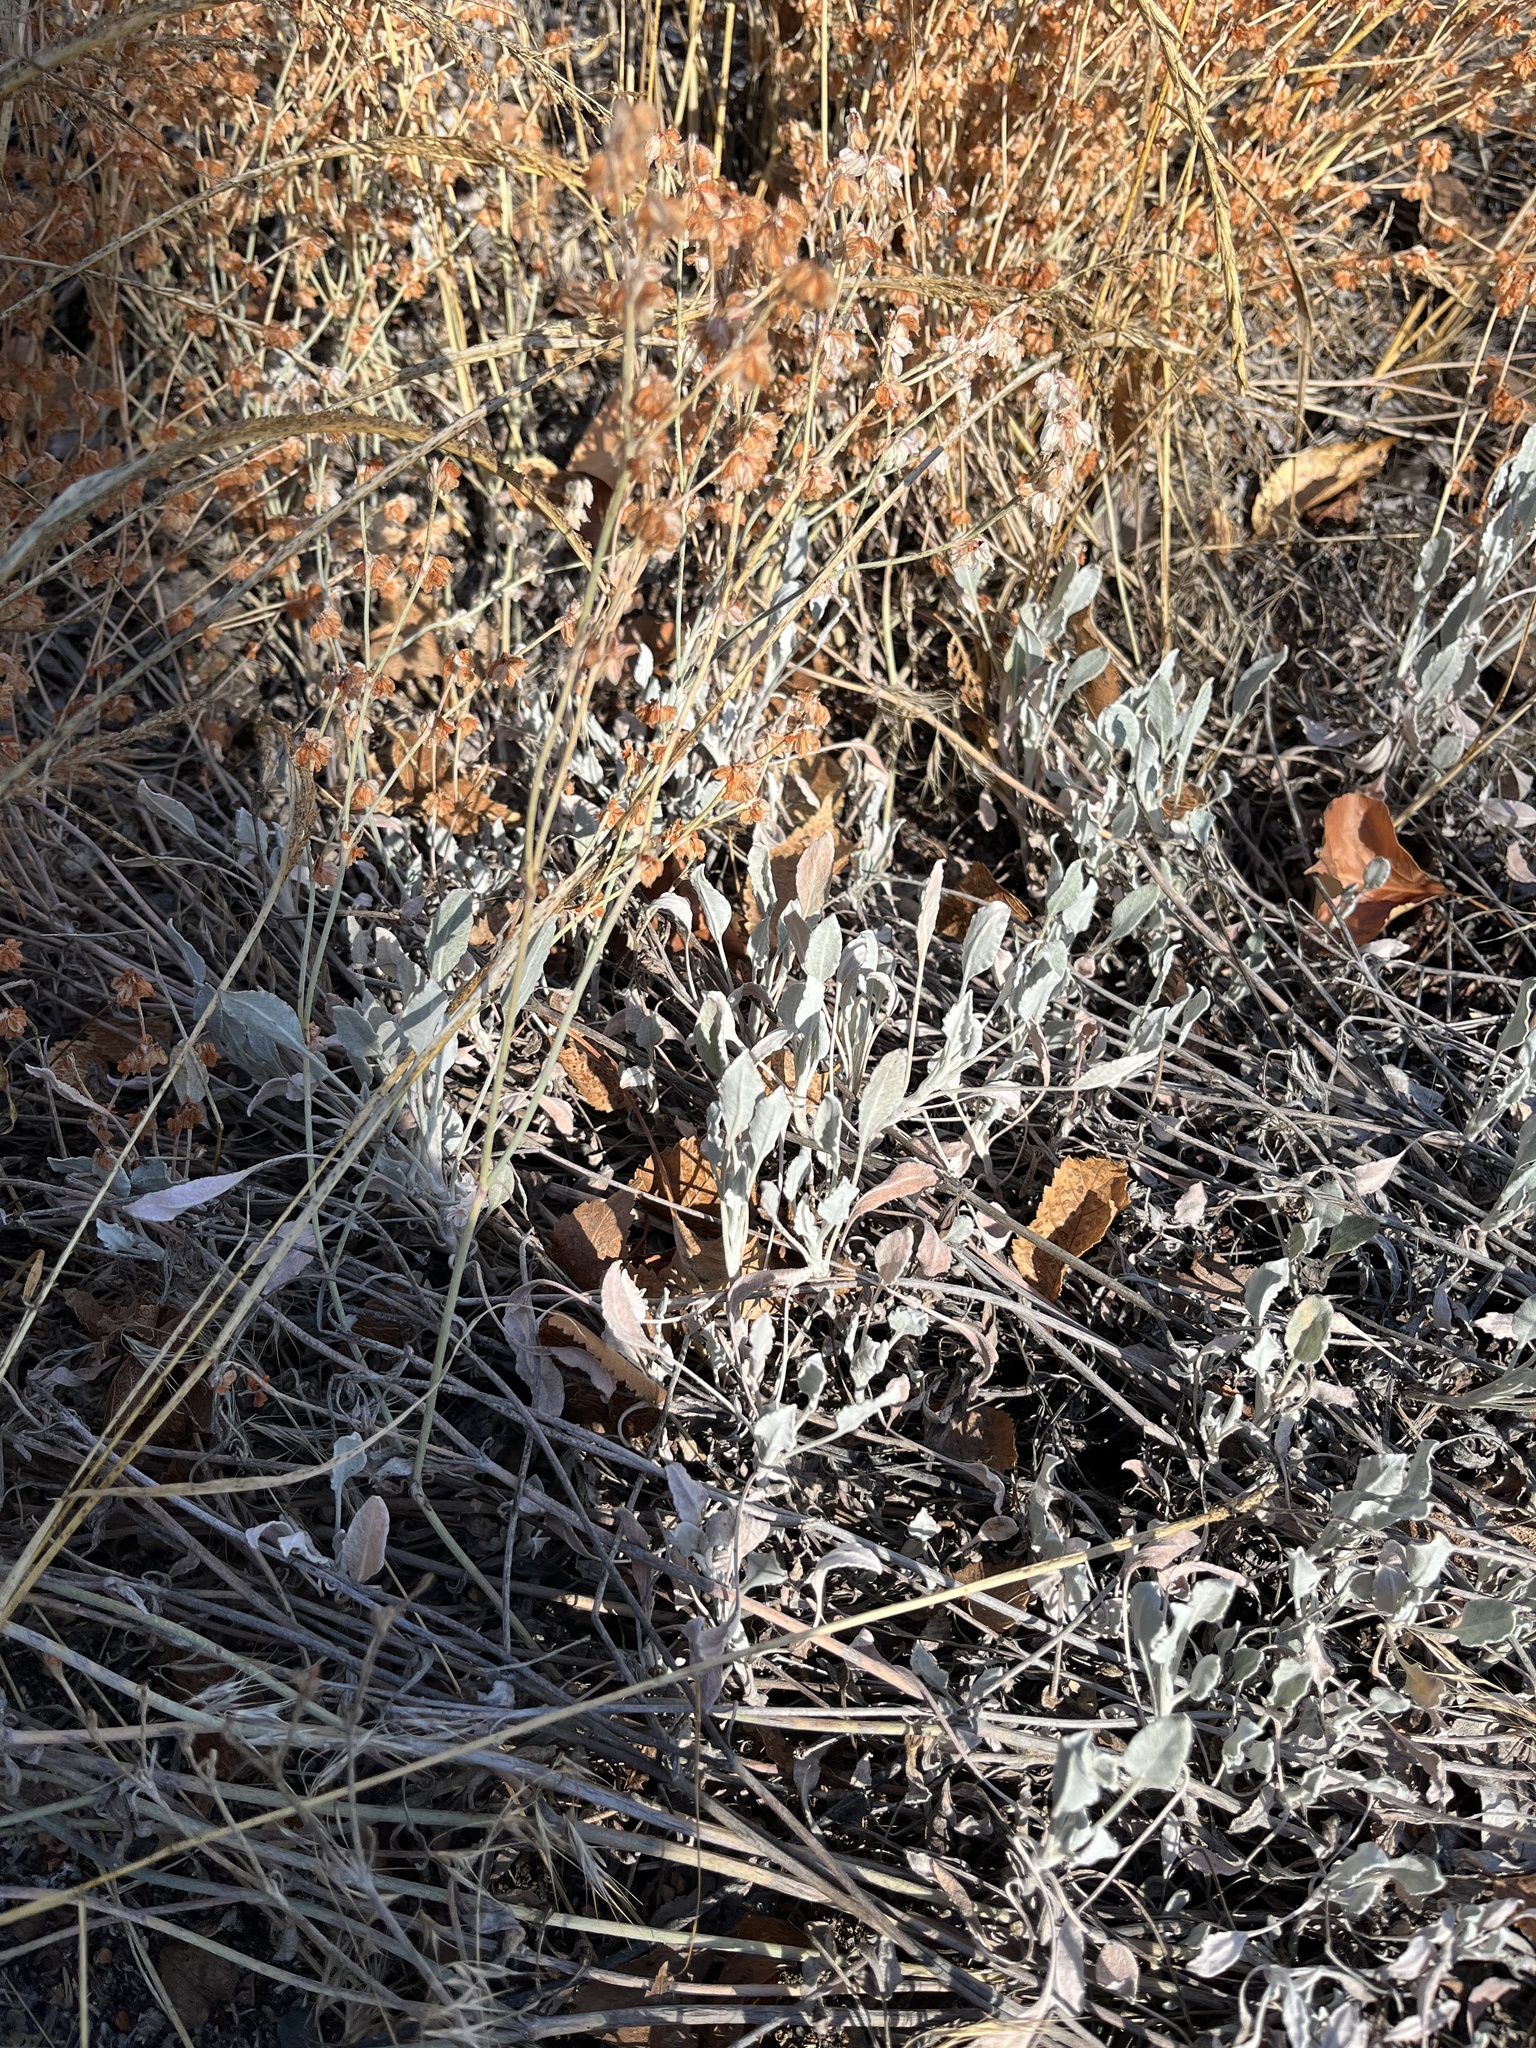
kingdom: Plantae
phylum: Tracheophyta
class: Magnoliopsida
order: Caryophyllales
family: Polygonaceae
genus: Eriogonum
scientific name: Eriogonum niveum
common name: Snow wild buckwheat
